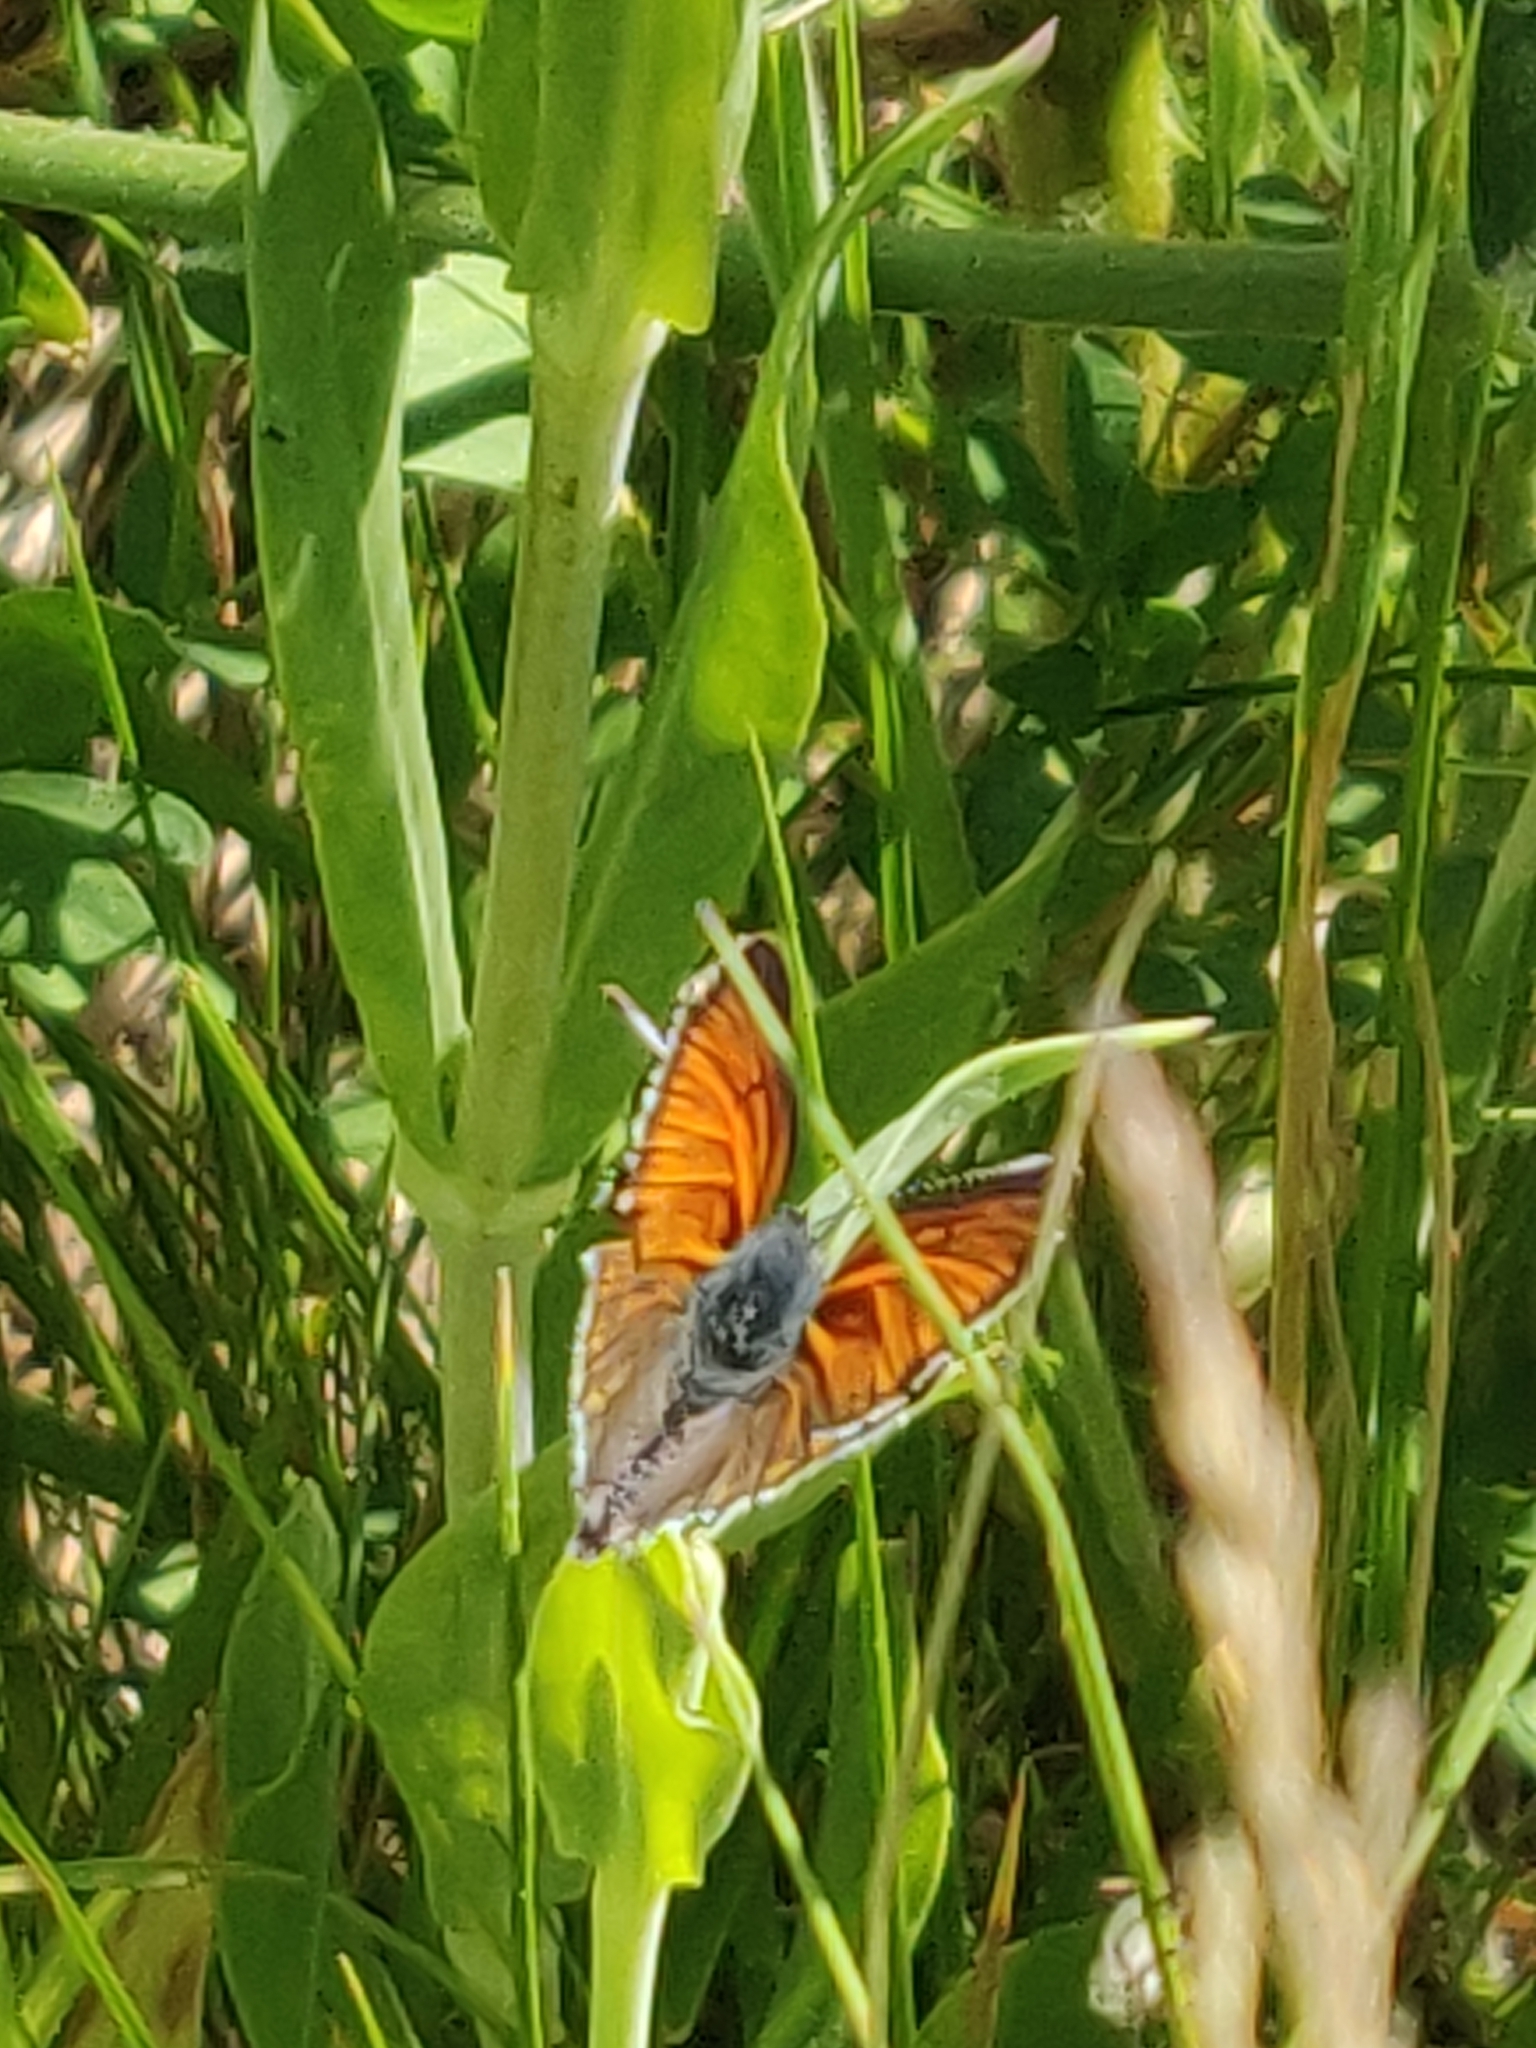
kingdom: Animalia
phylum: Arthropoda
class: Insecta
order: Lepidoptera
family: Lycaenidae
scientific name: Lycaenidae
